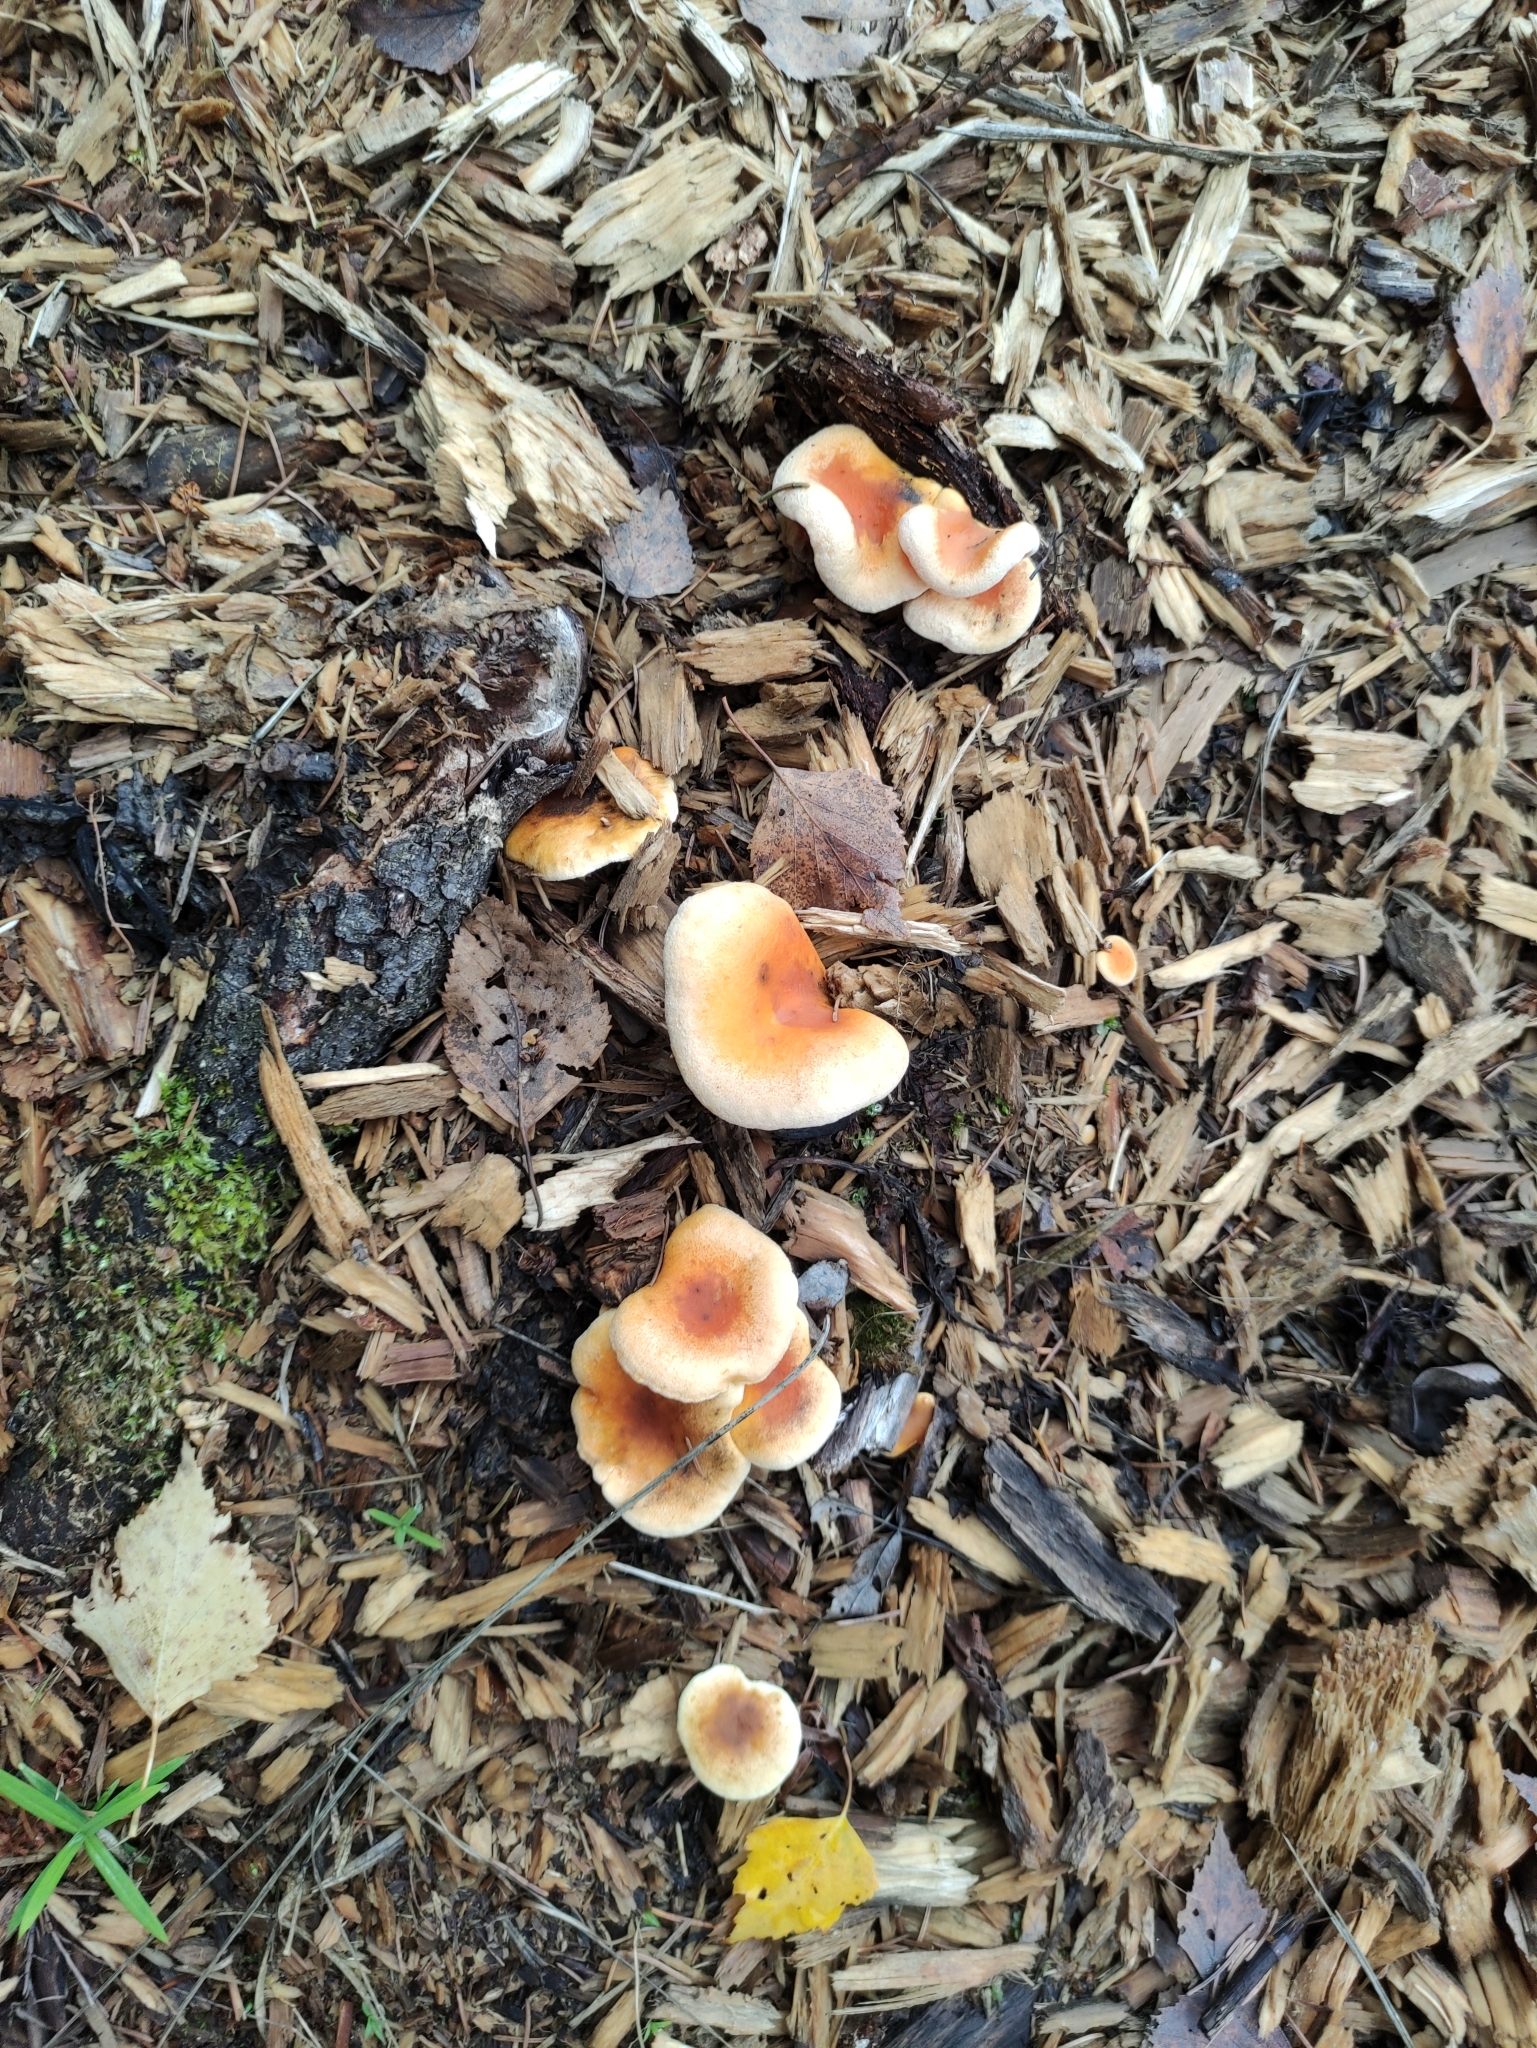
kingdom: Fungi
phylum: Basidiomycota
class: Agaricomycetes
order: Boletales
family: Hygrophoropsidaceae
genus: Hygrophoropsis
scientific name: Hygrophoropsis aurantiaca
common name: False chanterelle
